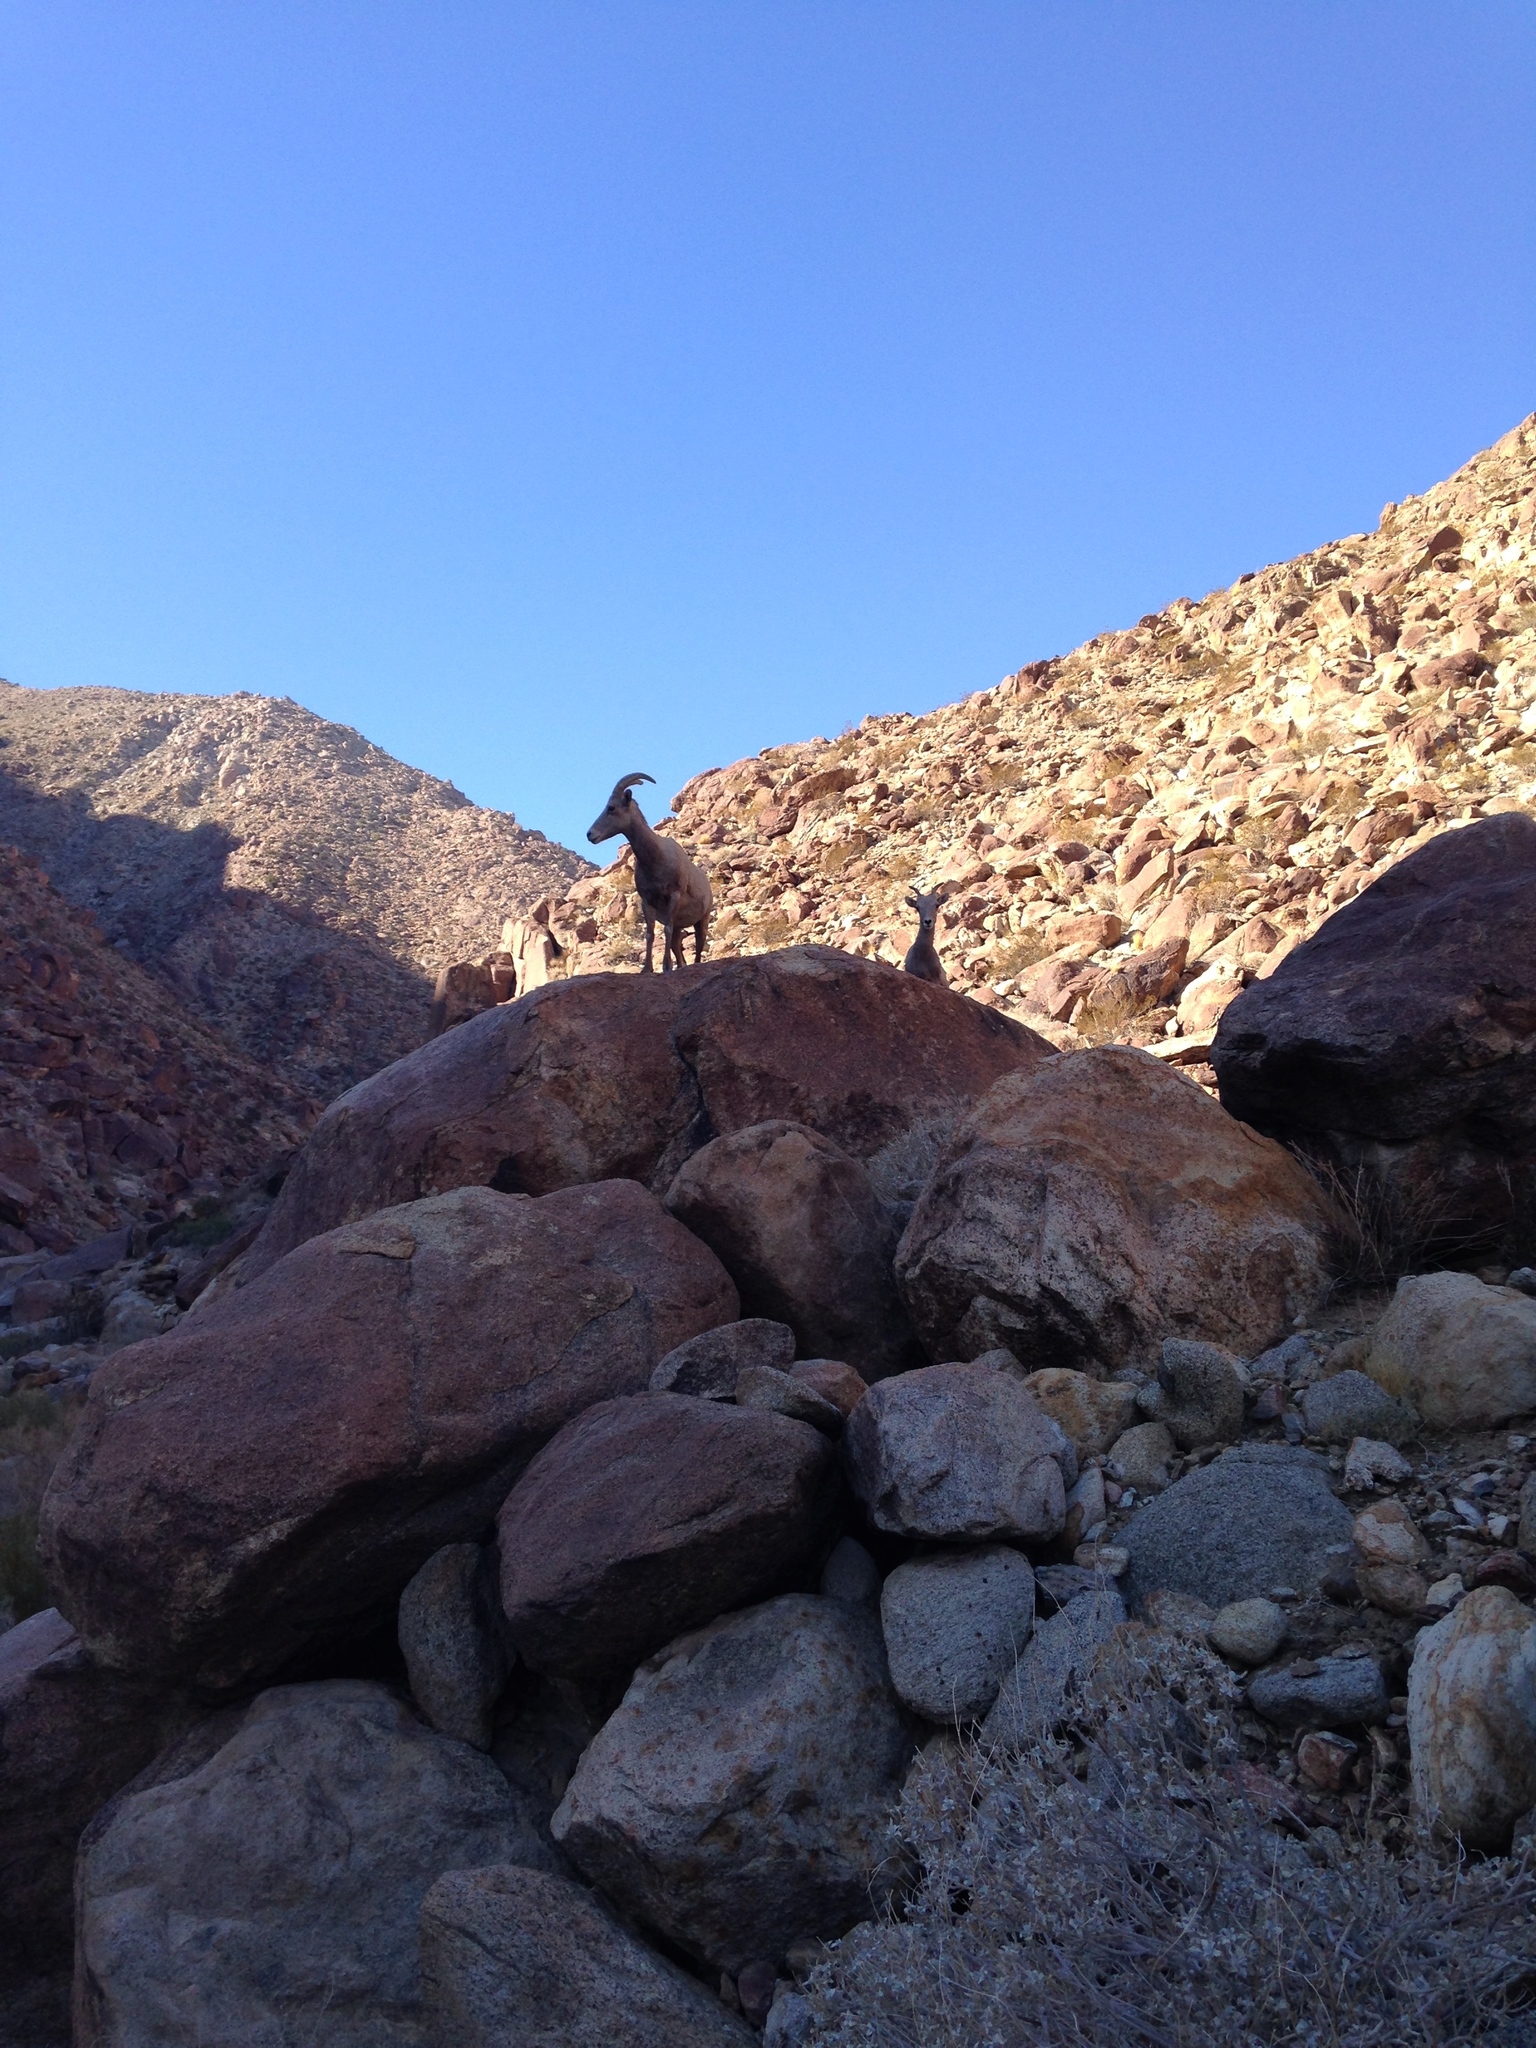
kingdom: Animalia
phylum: Chordata
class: Mammalia
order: Artiodactyla
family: Bovidae
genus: Ovis
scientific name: Ovis canadensis
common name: Bighorn sheep
